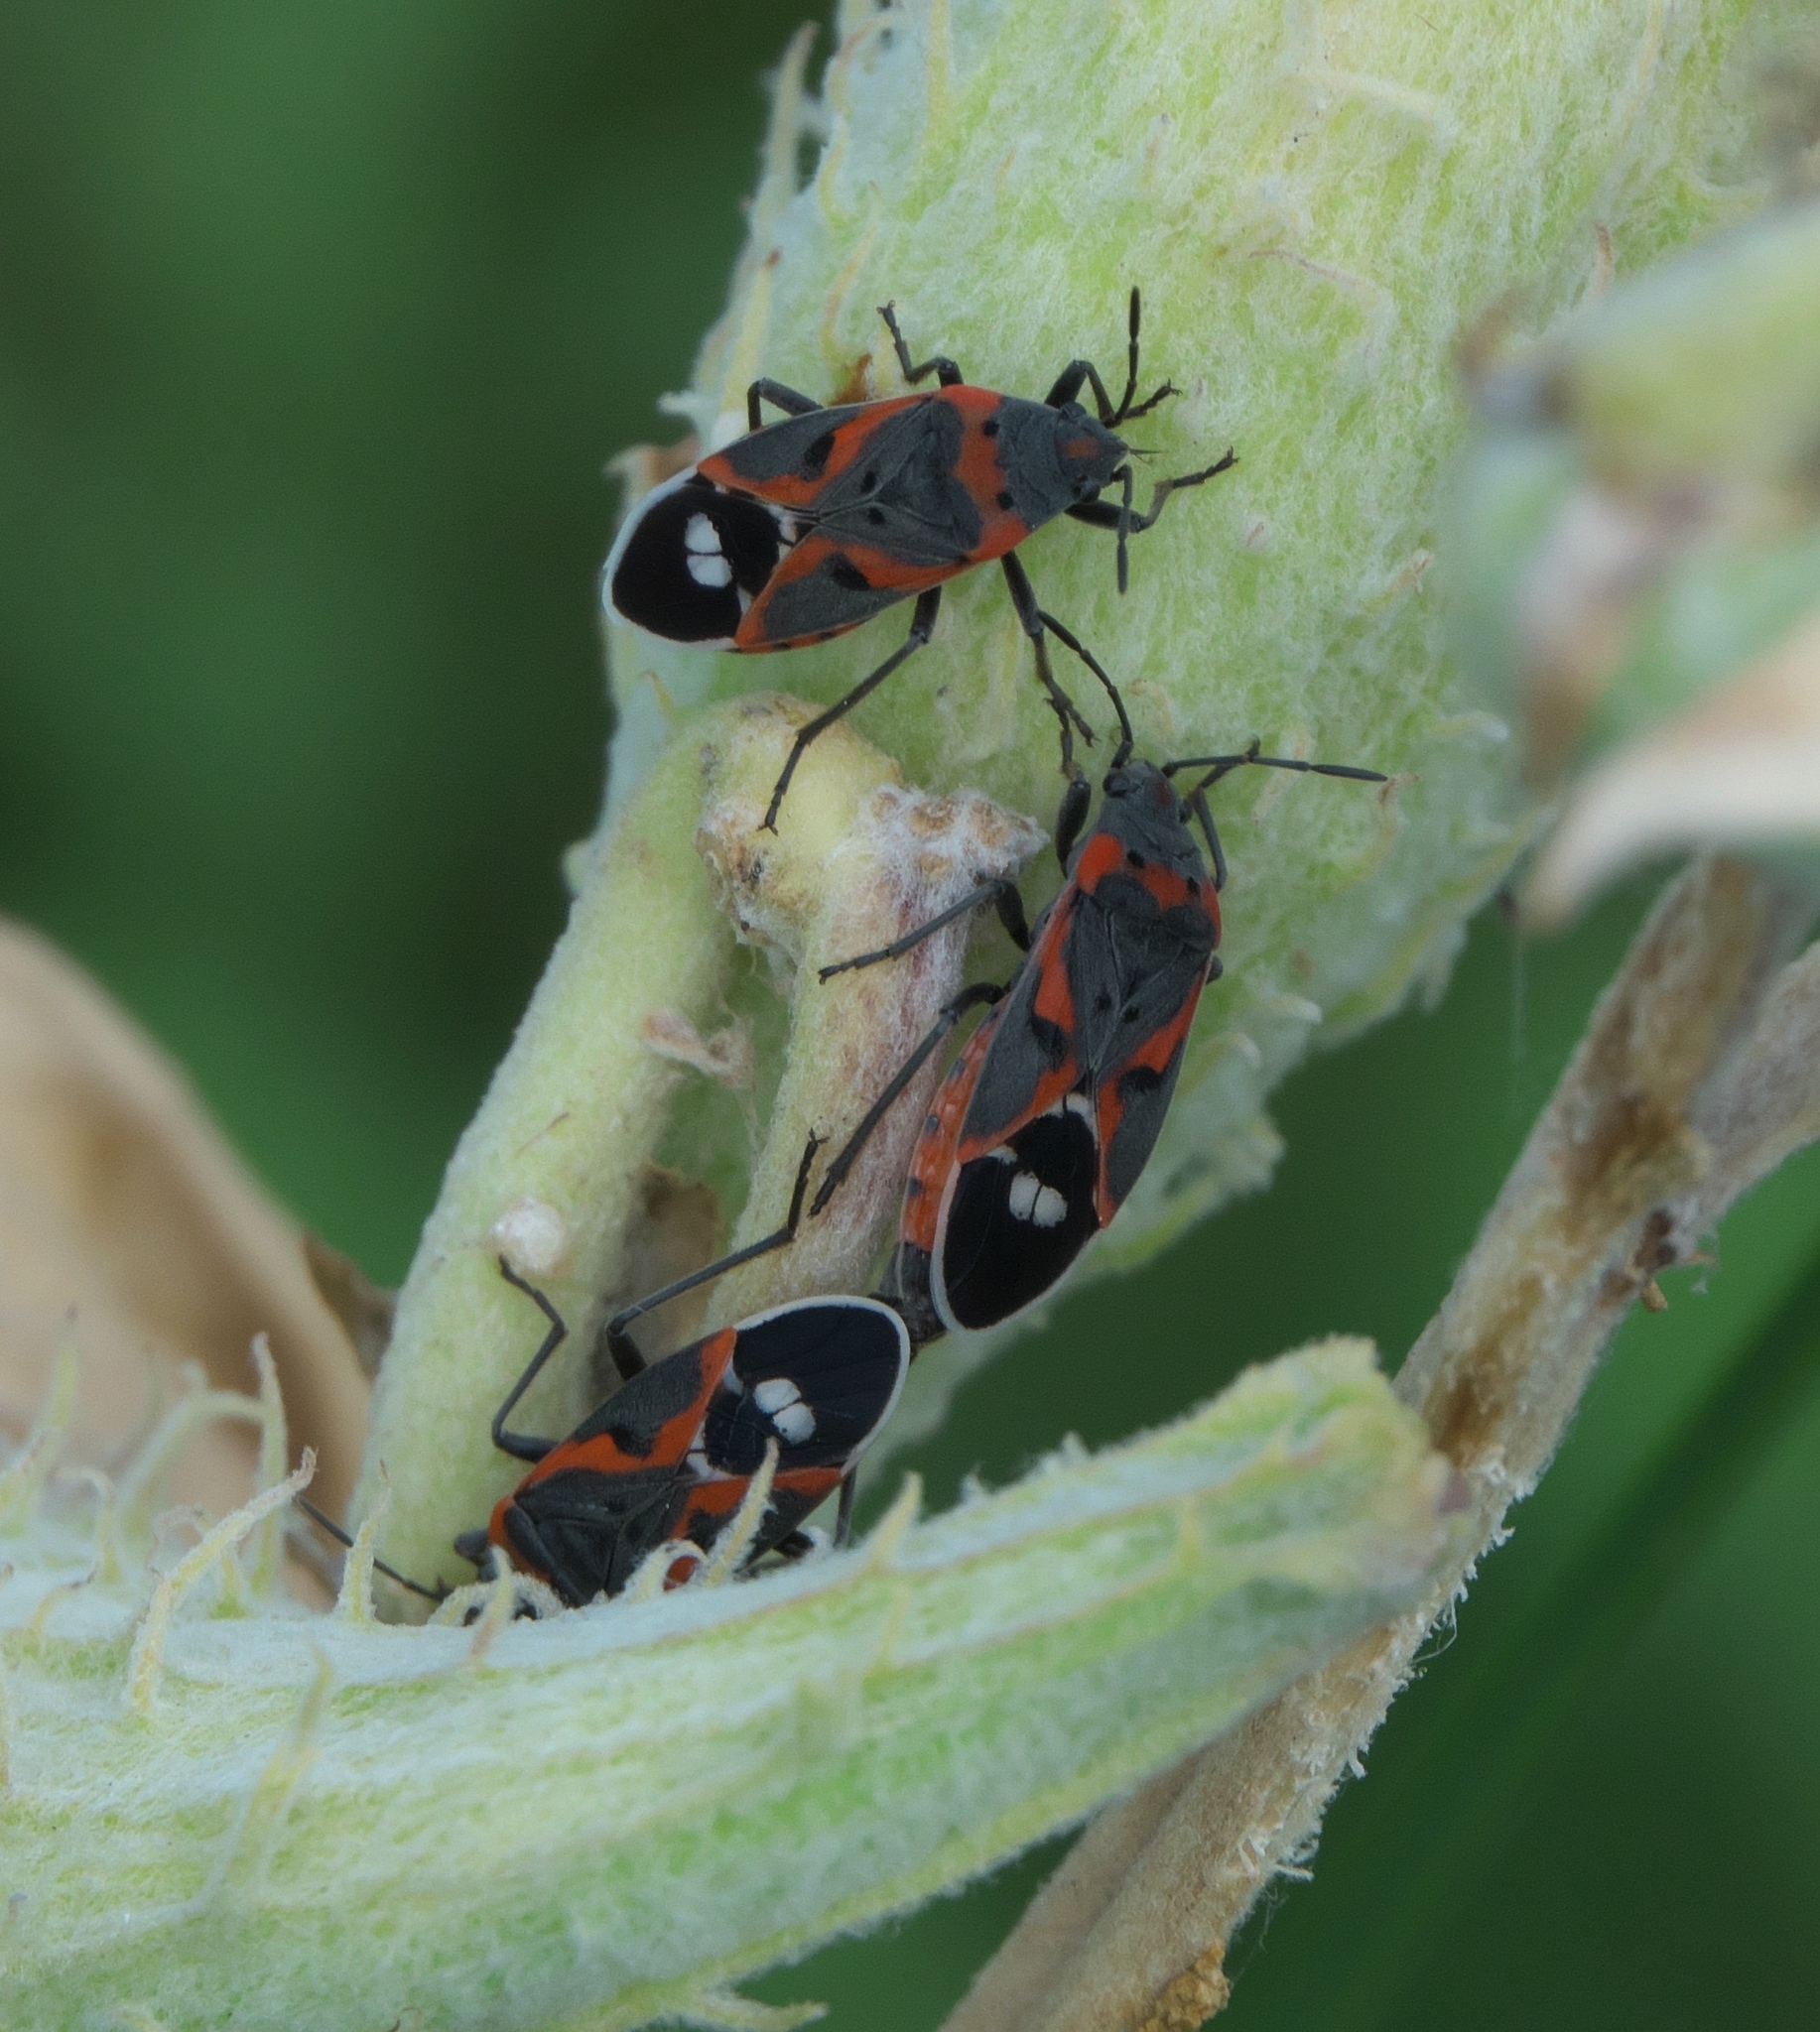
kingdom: Animalia
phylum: Arthropoda
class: Insecta
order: Hemiptera
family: Lygaeidae
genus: Lygaeus
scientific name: Lygaeus kalmii
